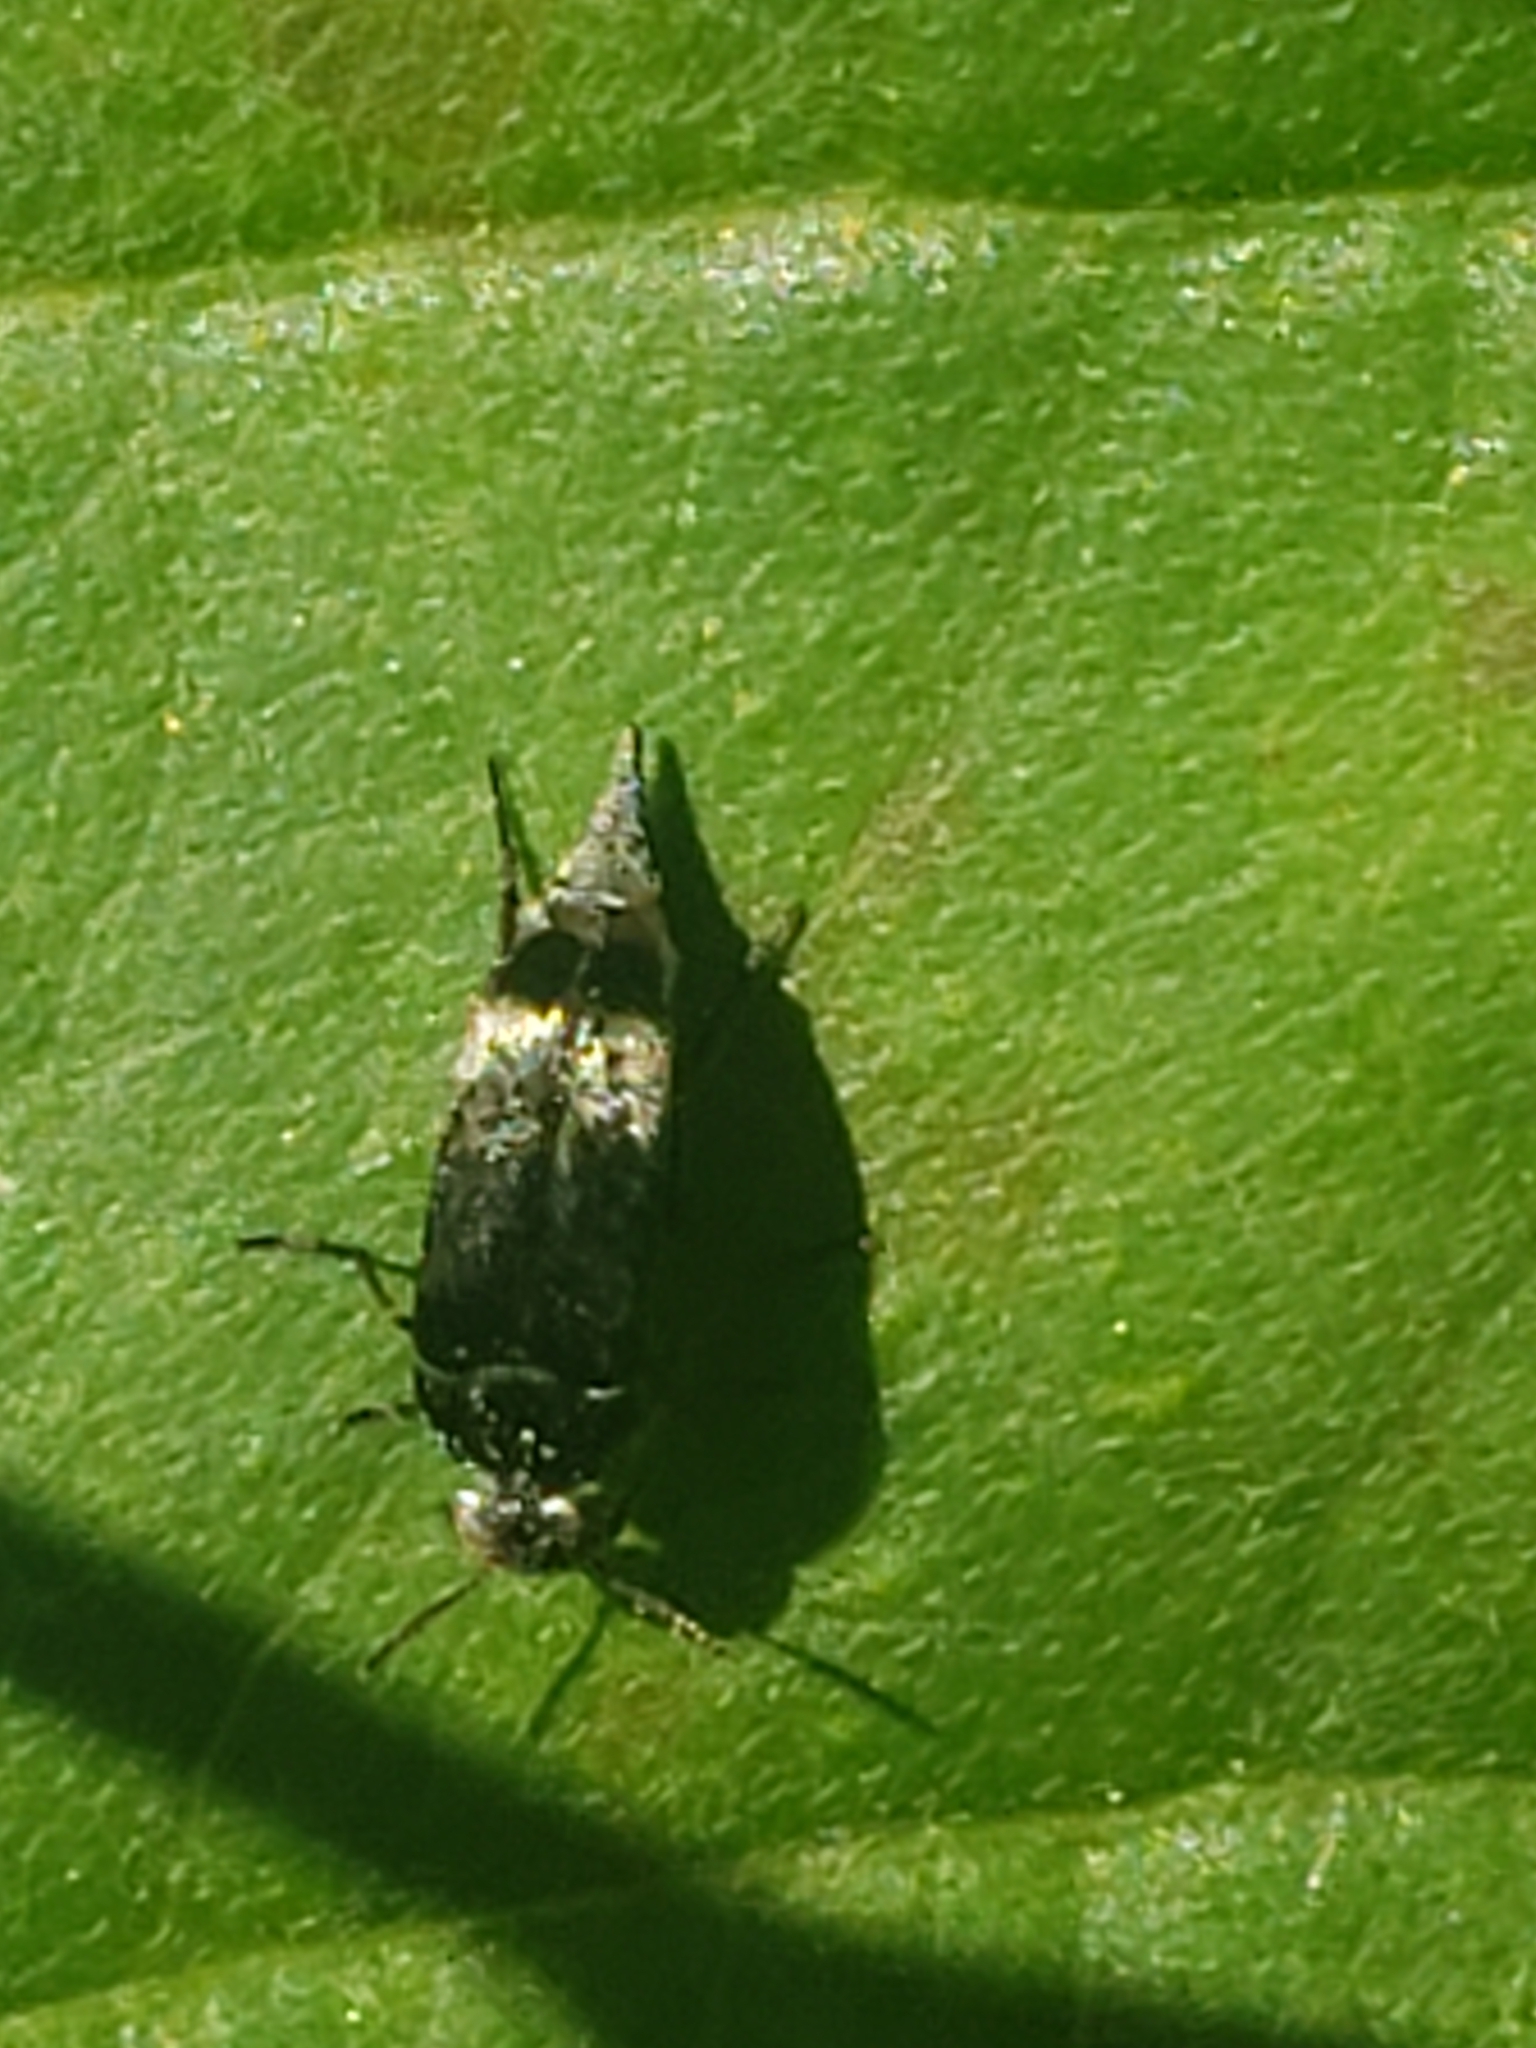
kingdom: Animalia
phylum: Arthropoda
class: Insecta
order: Coleoptera
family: Mordellidae
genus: Mordella
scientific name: Mordella marginata
